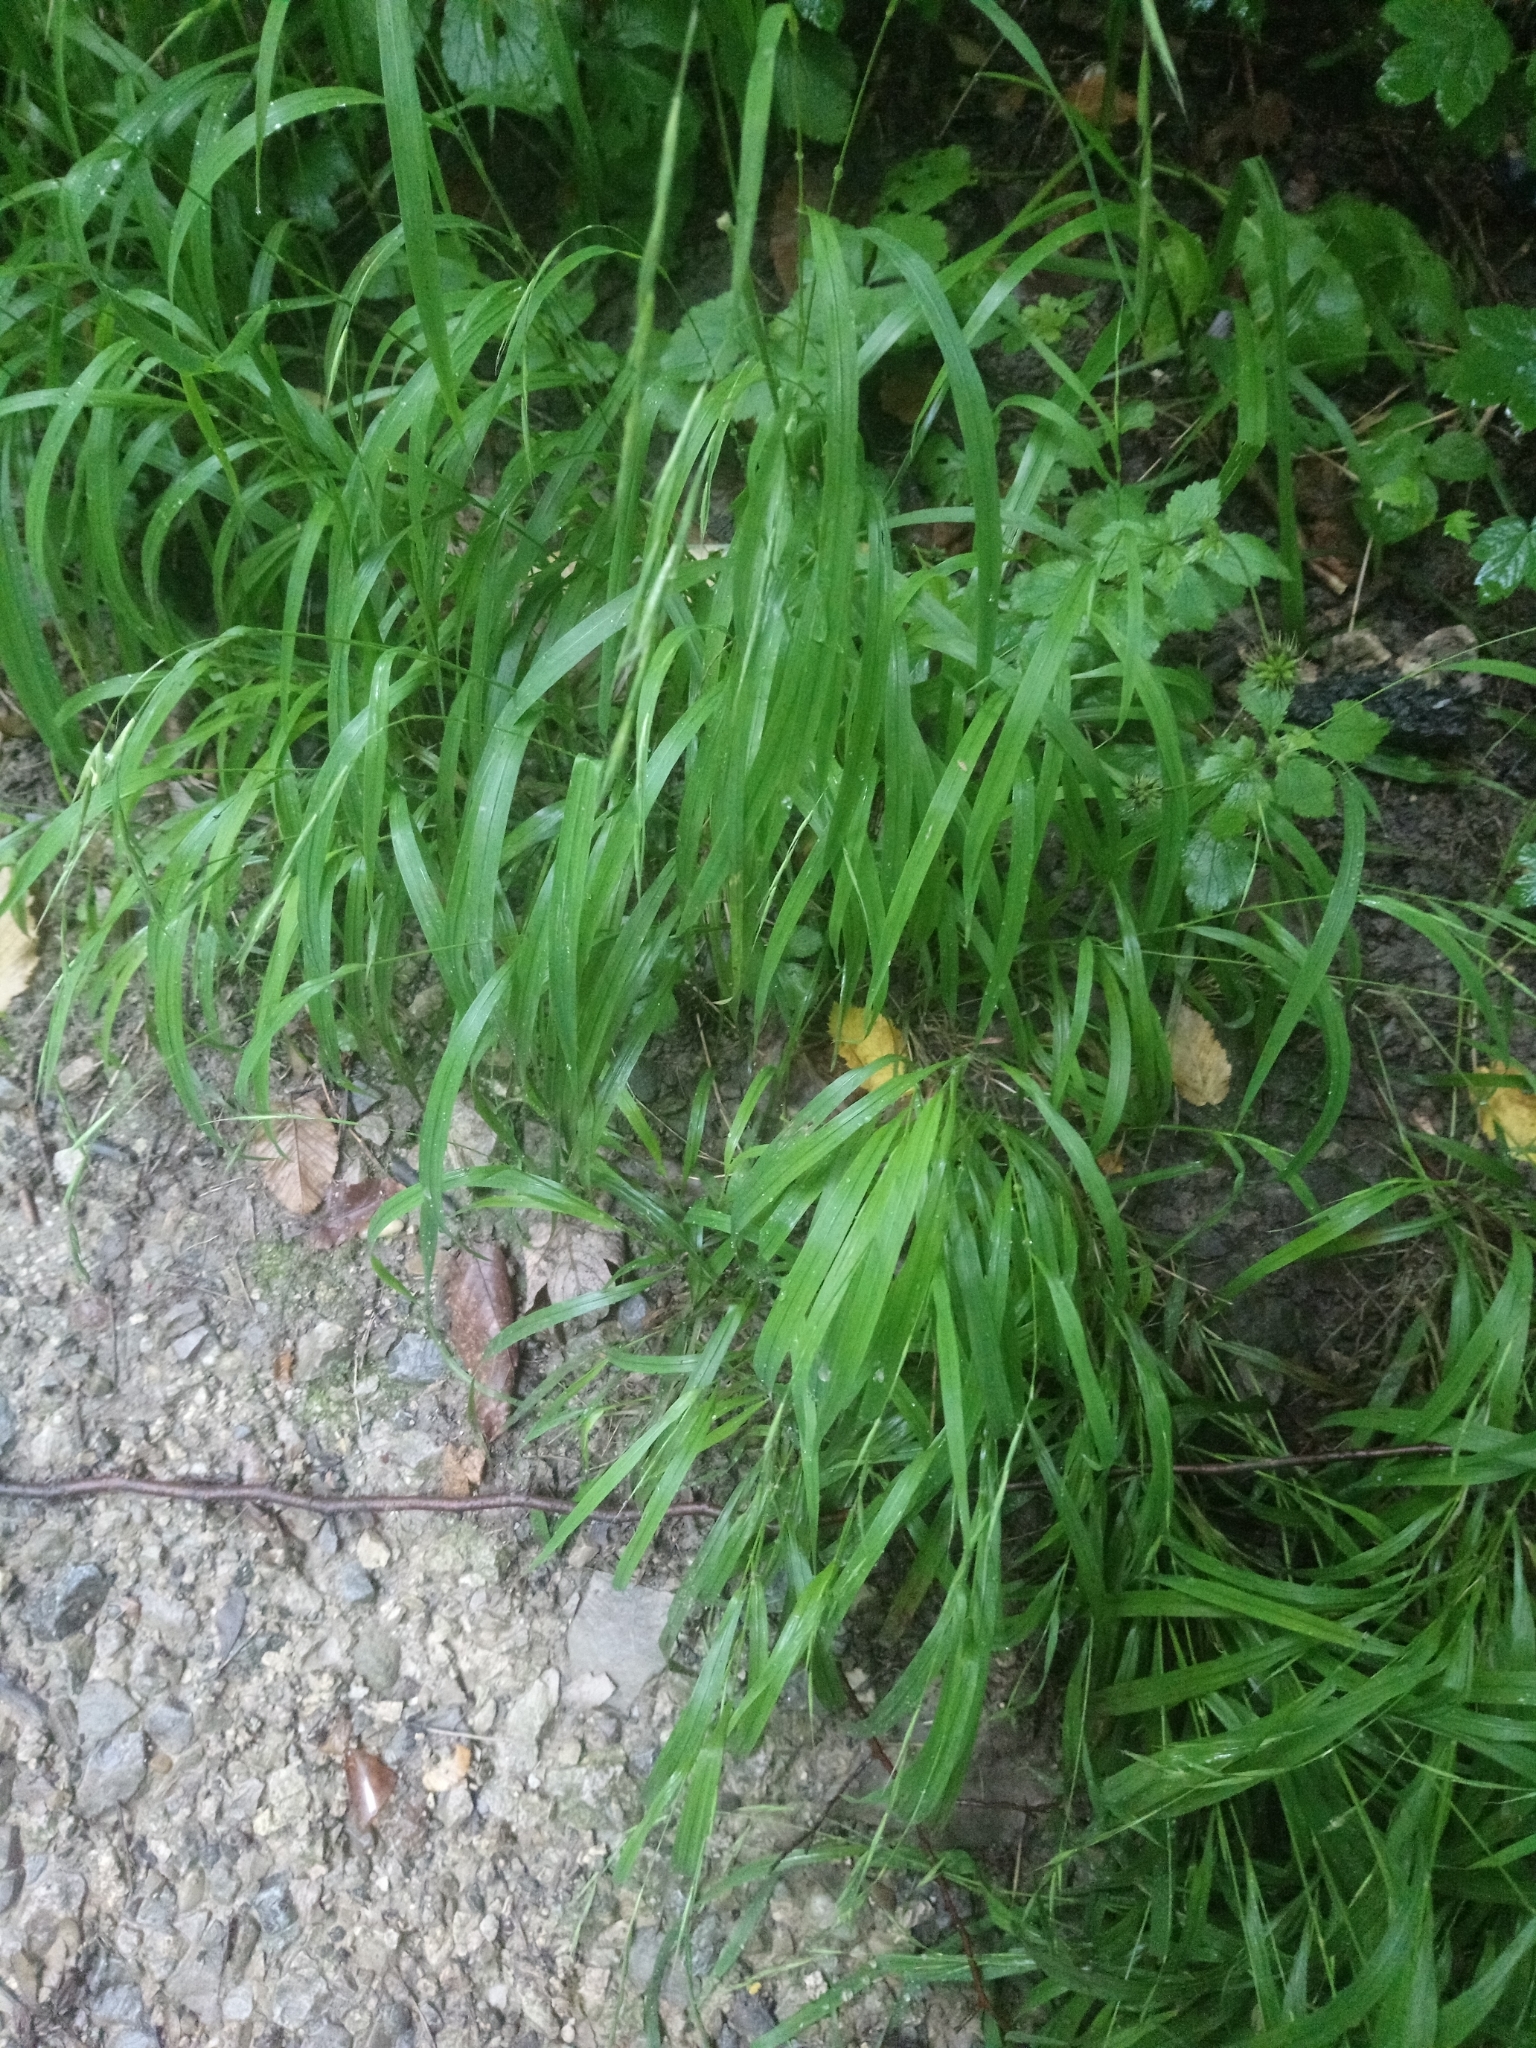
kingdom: Plantae
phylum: Tracheophyta
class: Liliopsida
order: Poales
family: Poaceae
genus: Brachypodium
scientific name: Brachypodium sylvaticum
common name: False-brome
